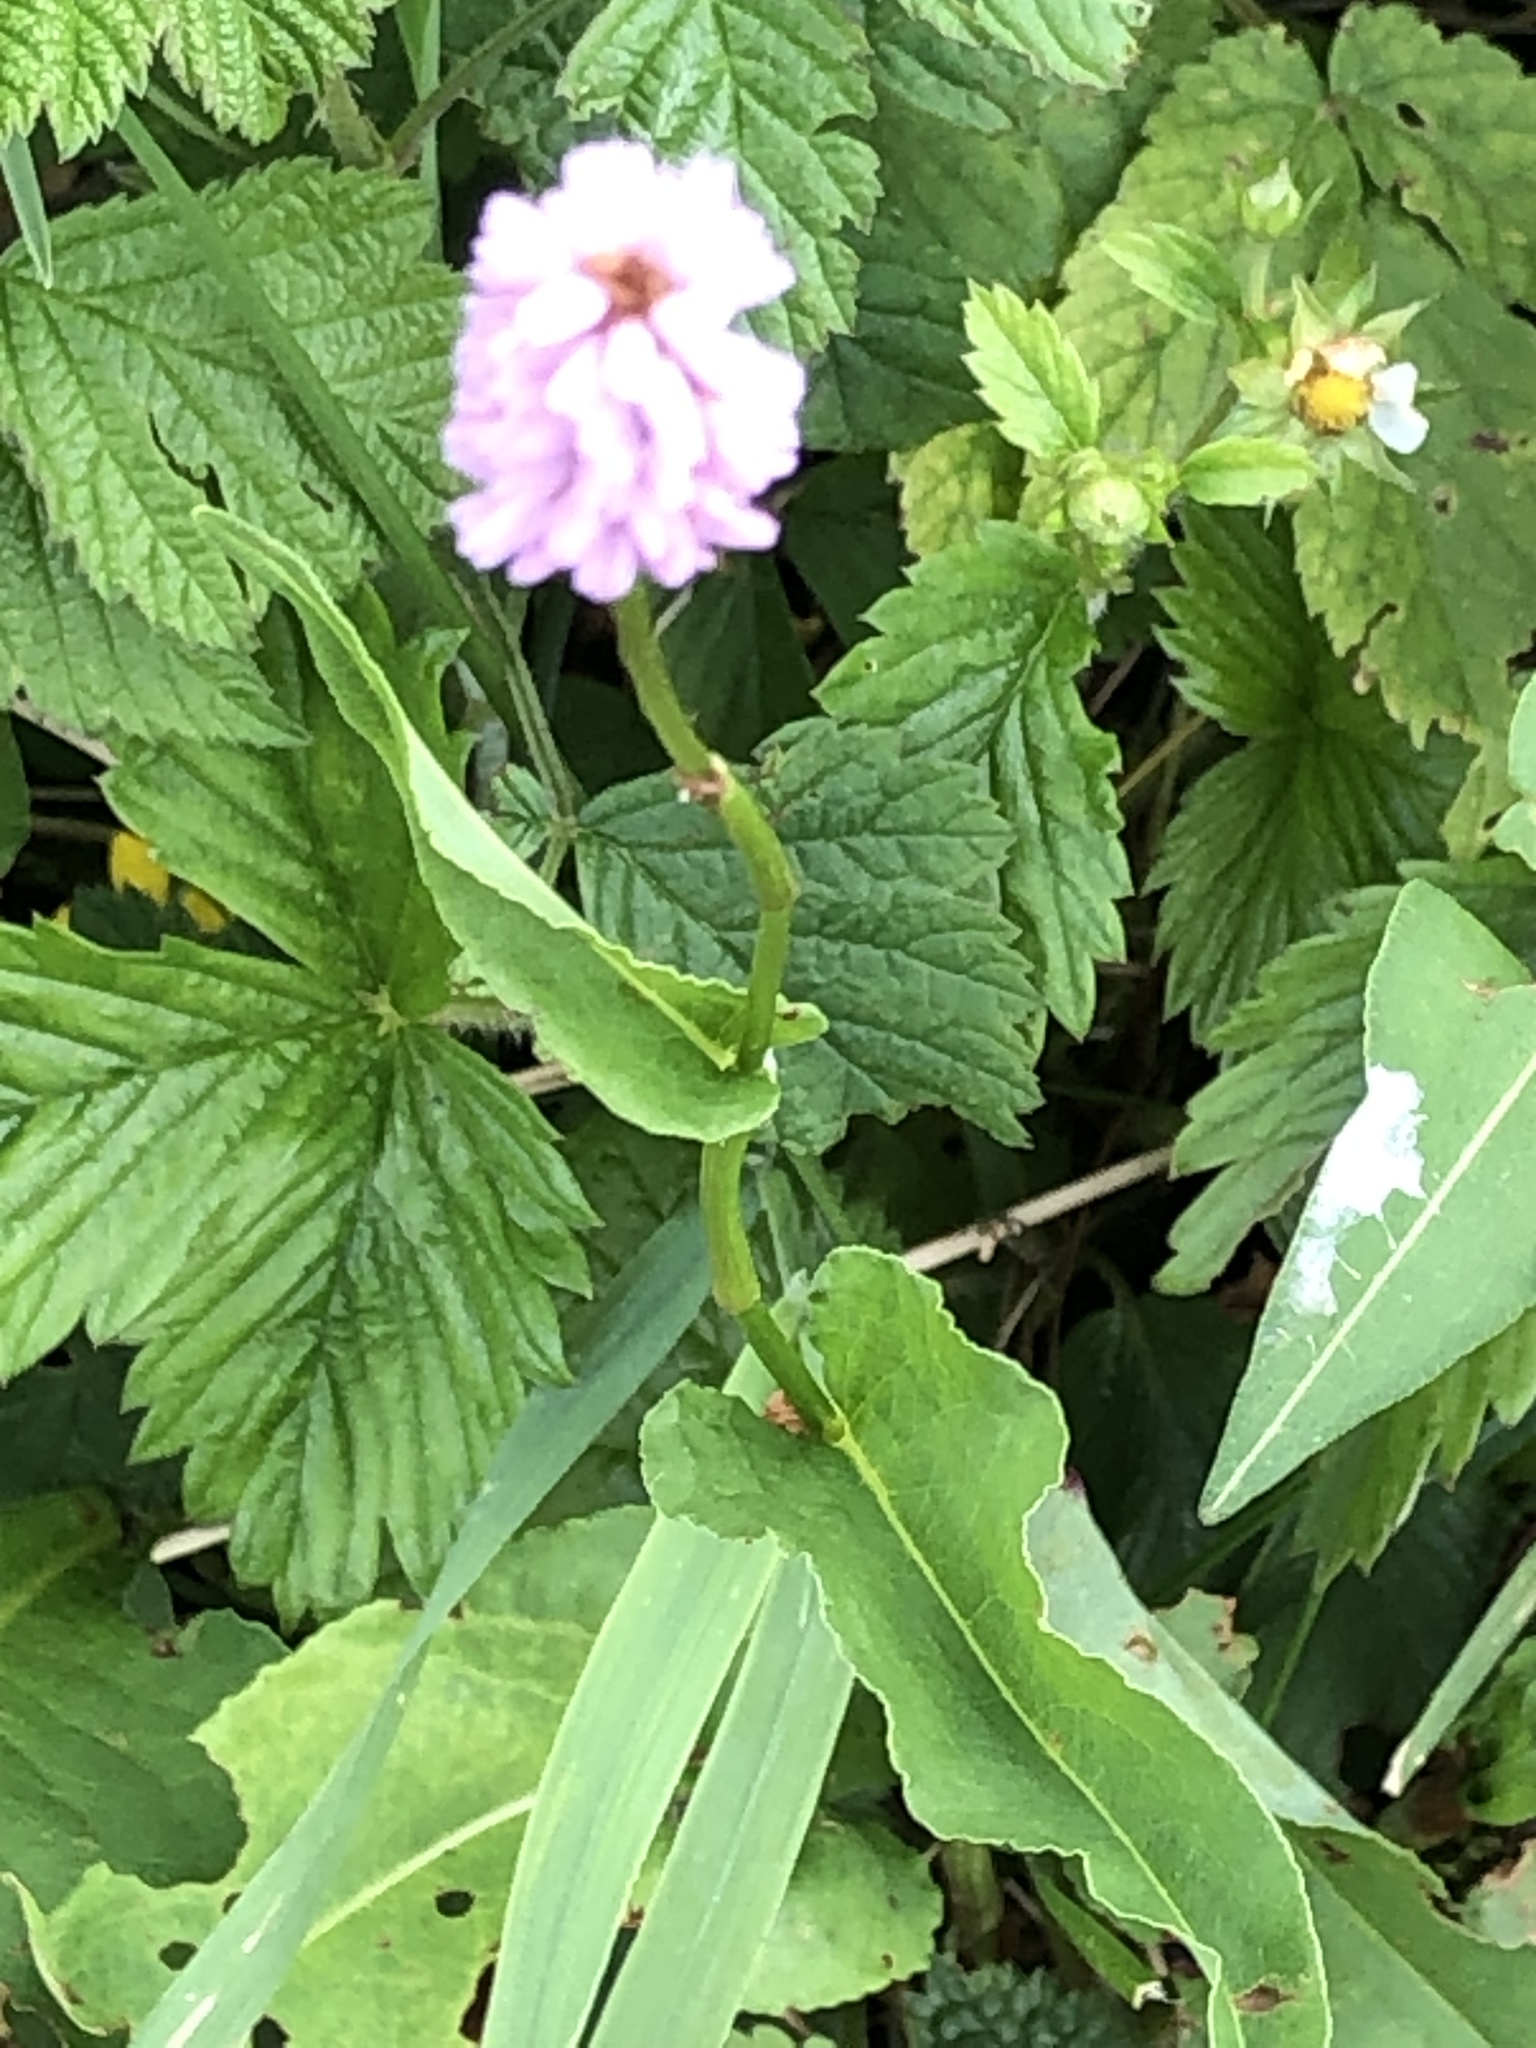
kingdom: Plantae
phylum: Tracheophyta
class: Magnoliopsida
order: Caryophyllales
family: Polygonaceae
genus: Bistorta
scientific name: Bistorta officinalis
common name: Common bistort
